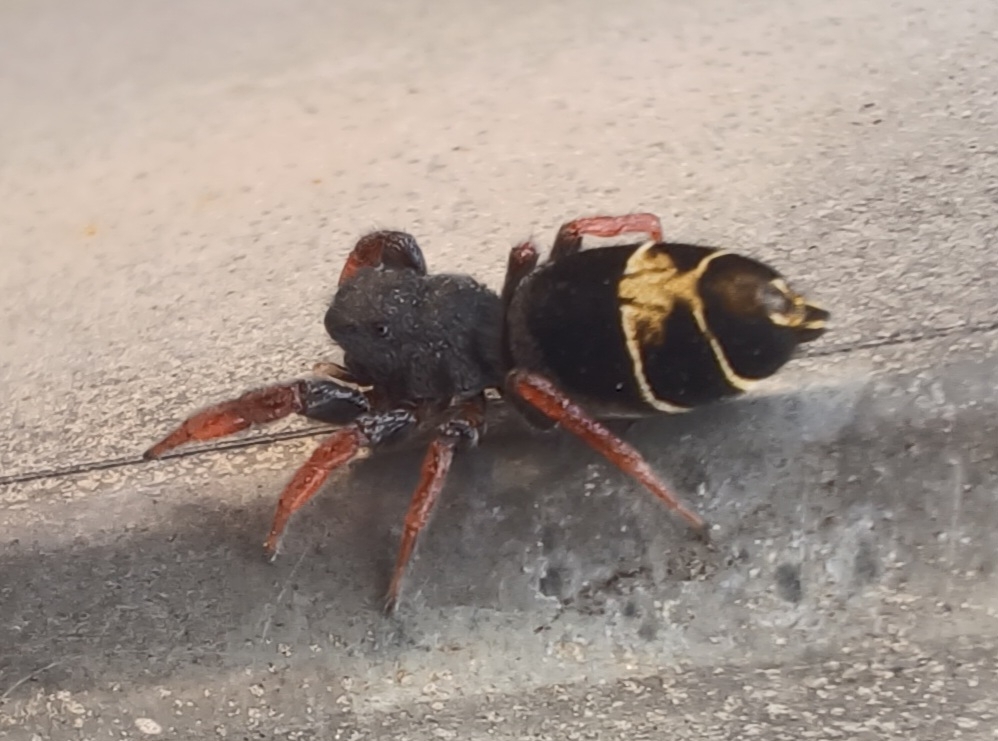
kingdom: Animalia
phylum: Arthropoda
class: Arachnida
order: Araneae
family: Salticidae
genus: Apricia
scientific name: Apricia jovialis
